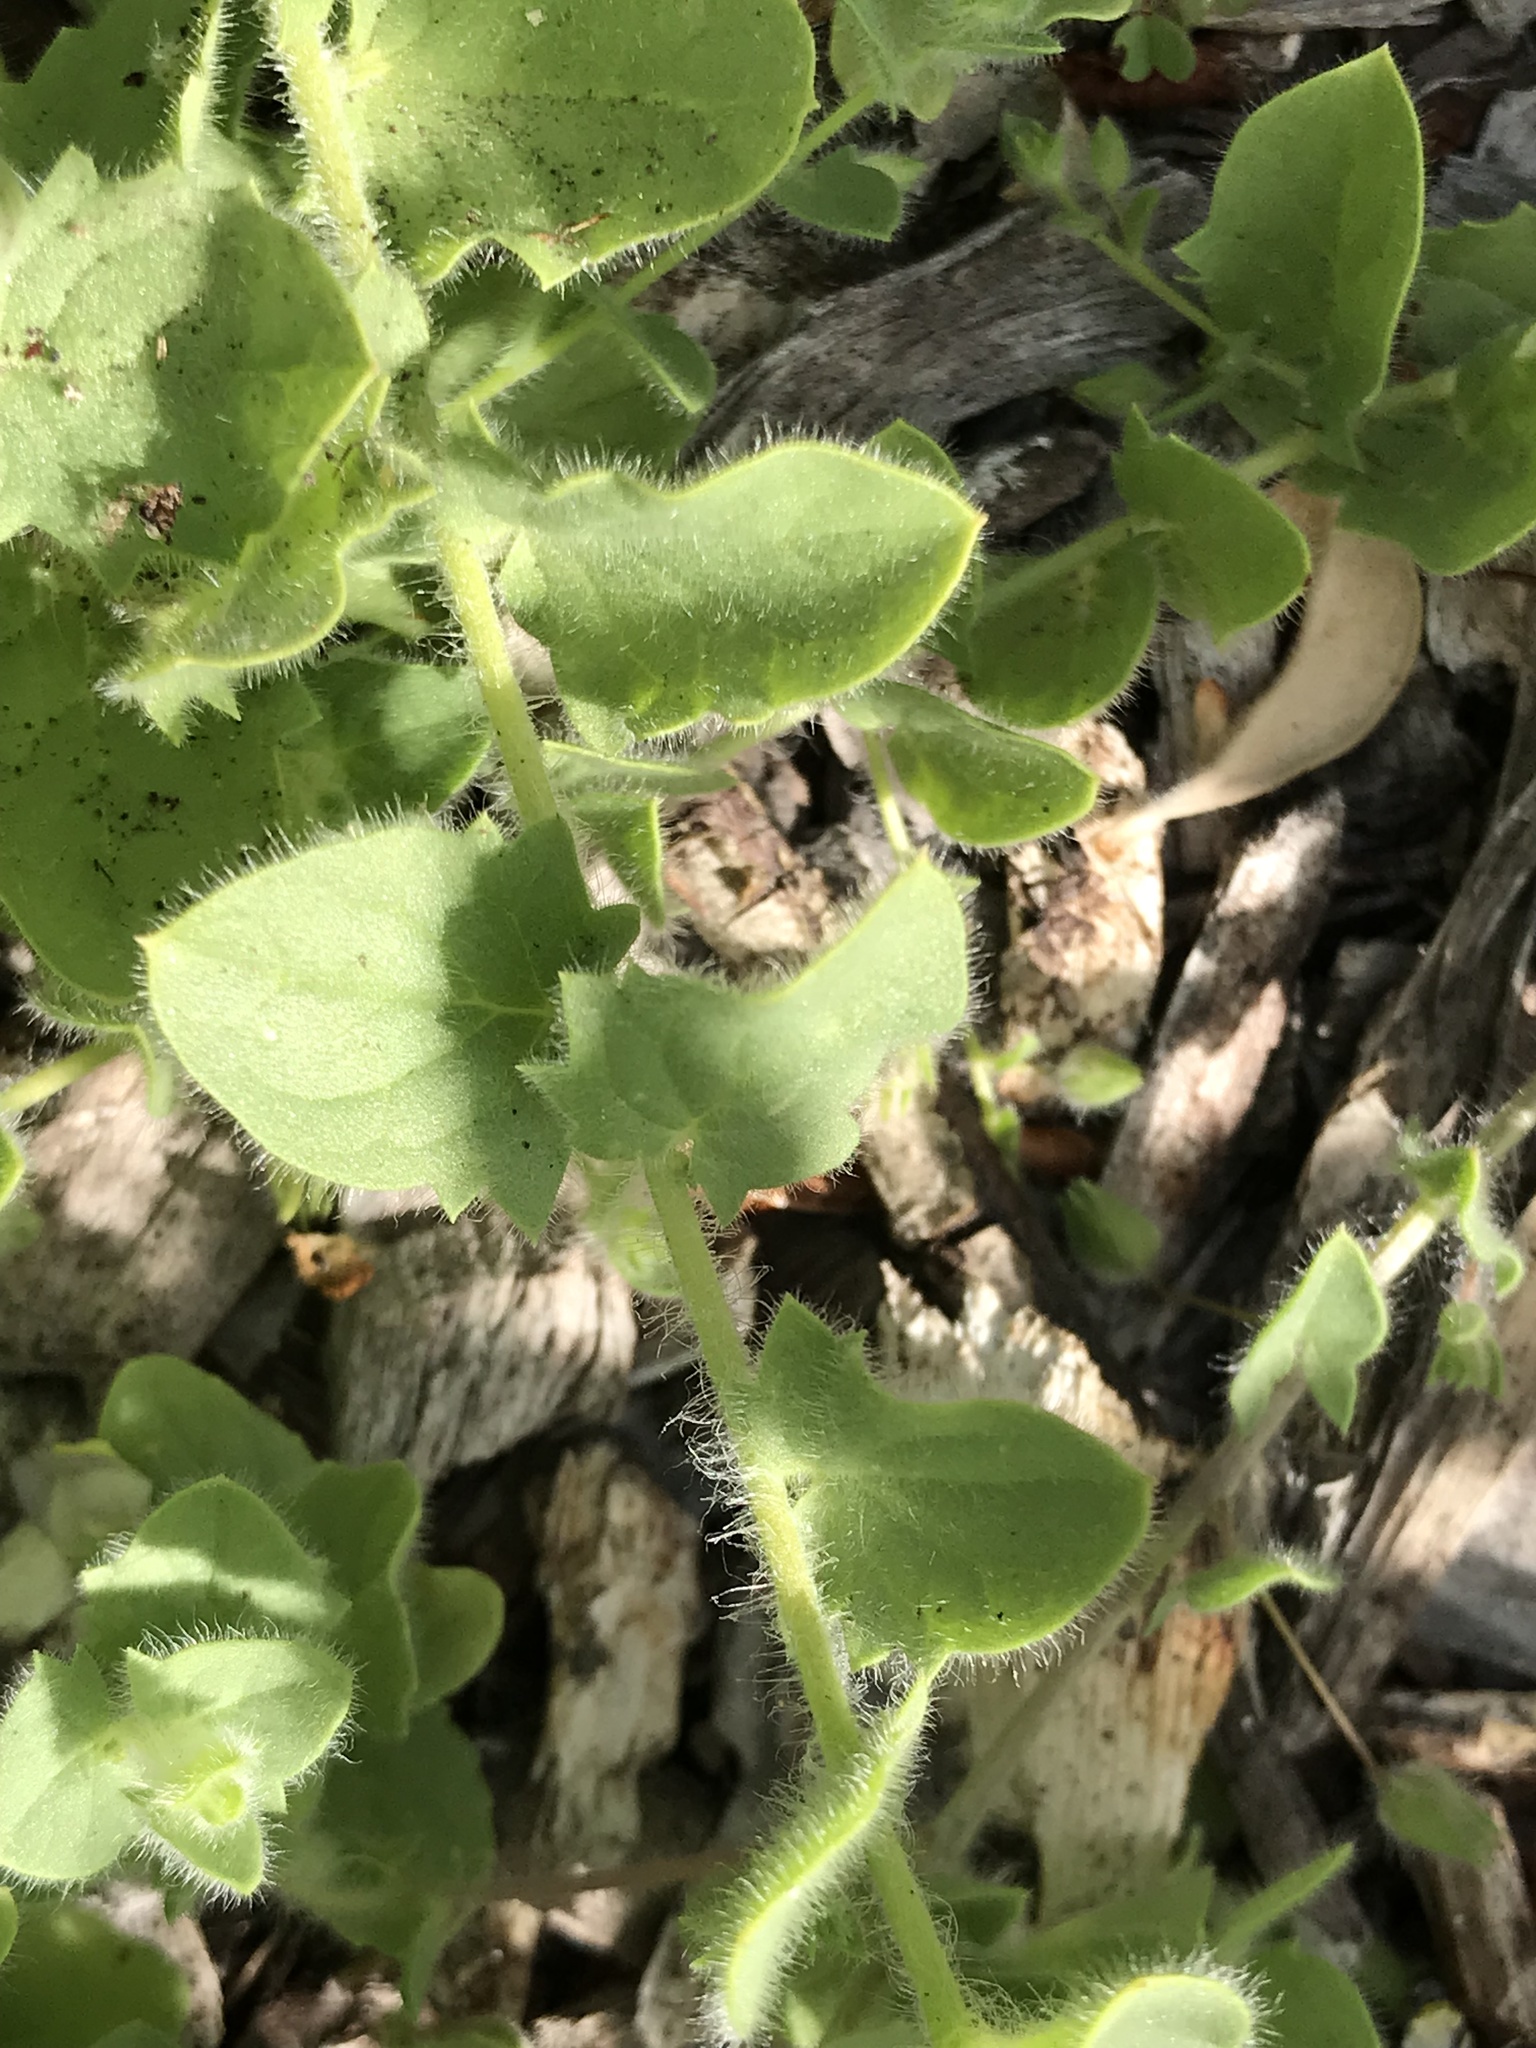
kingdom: Plantae
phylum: Tracheophyta
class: Magnoliopsida
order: Lamiales
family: Plantaginaceae
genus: Kickxia
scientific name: Kickxia elatine
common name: Sharp-leaved fluellen
